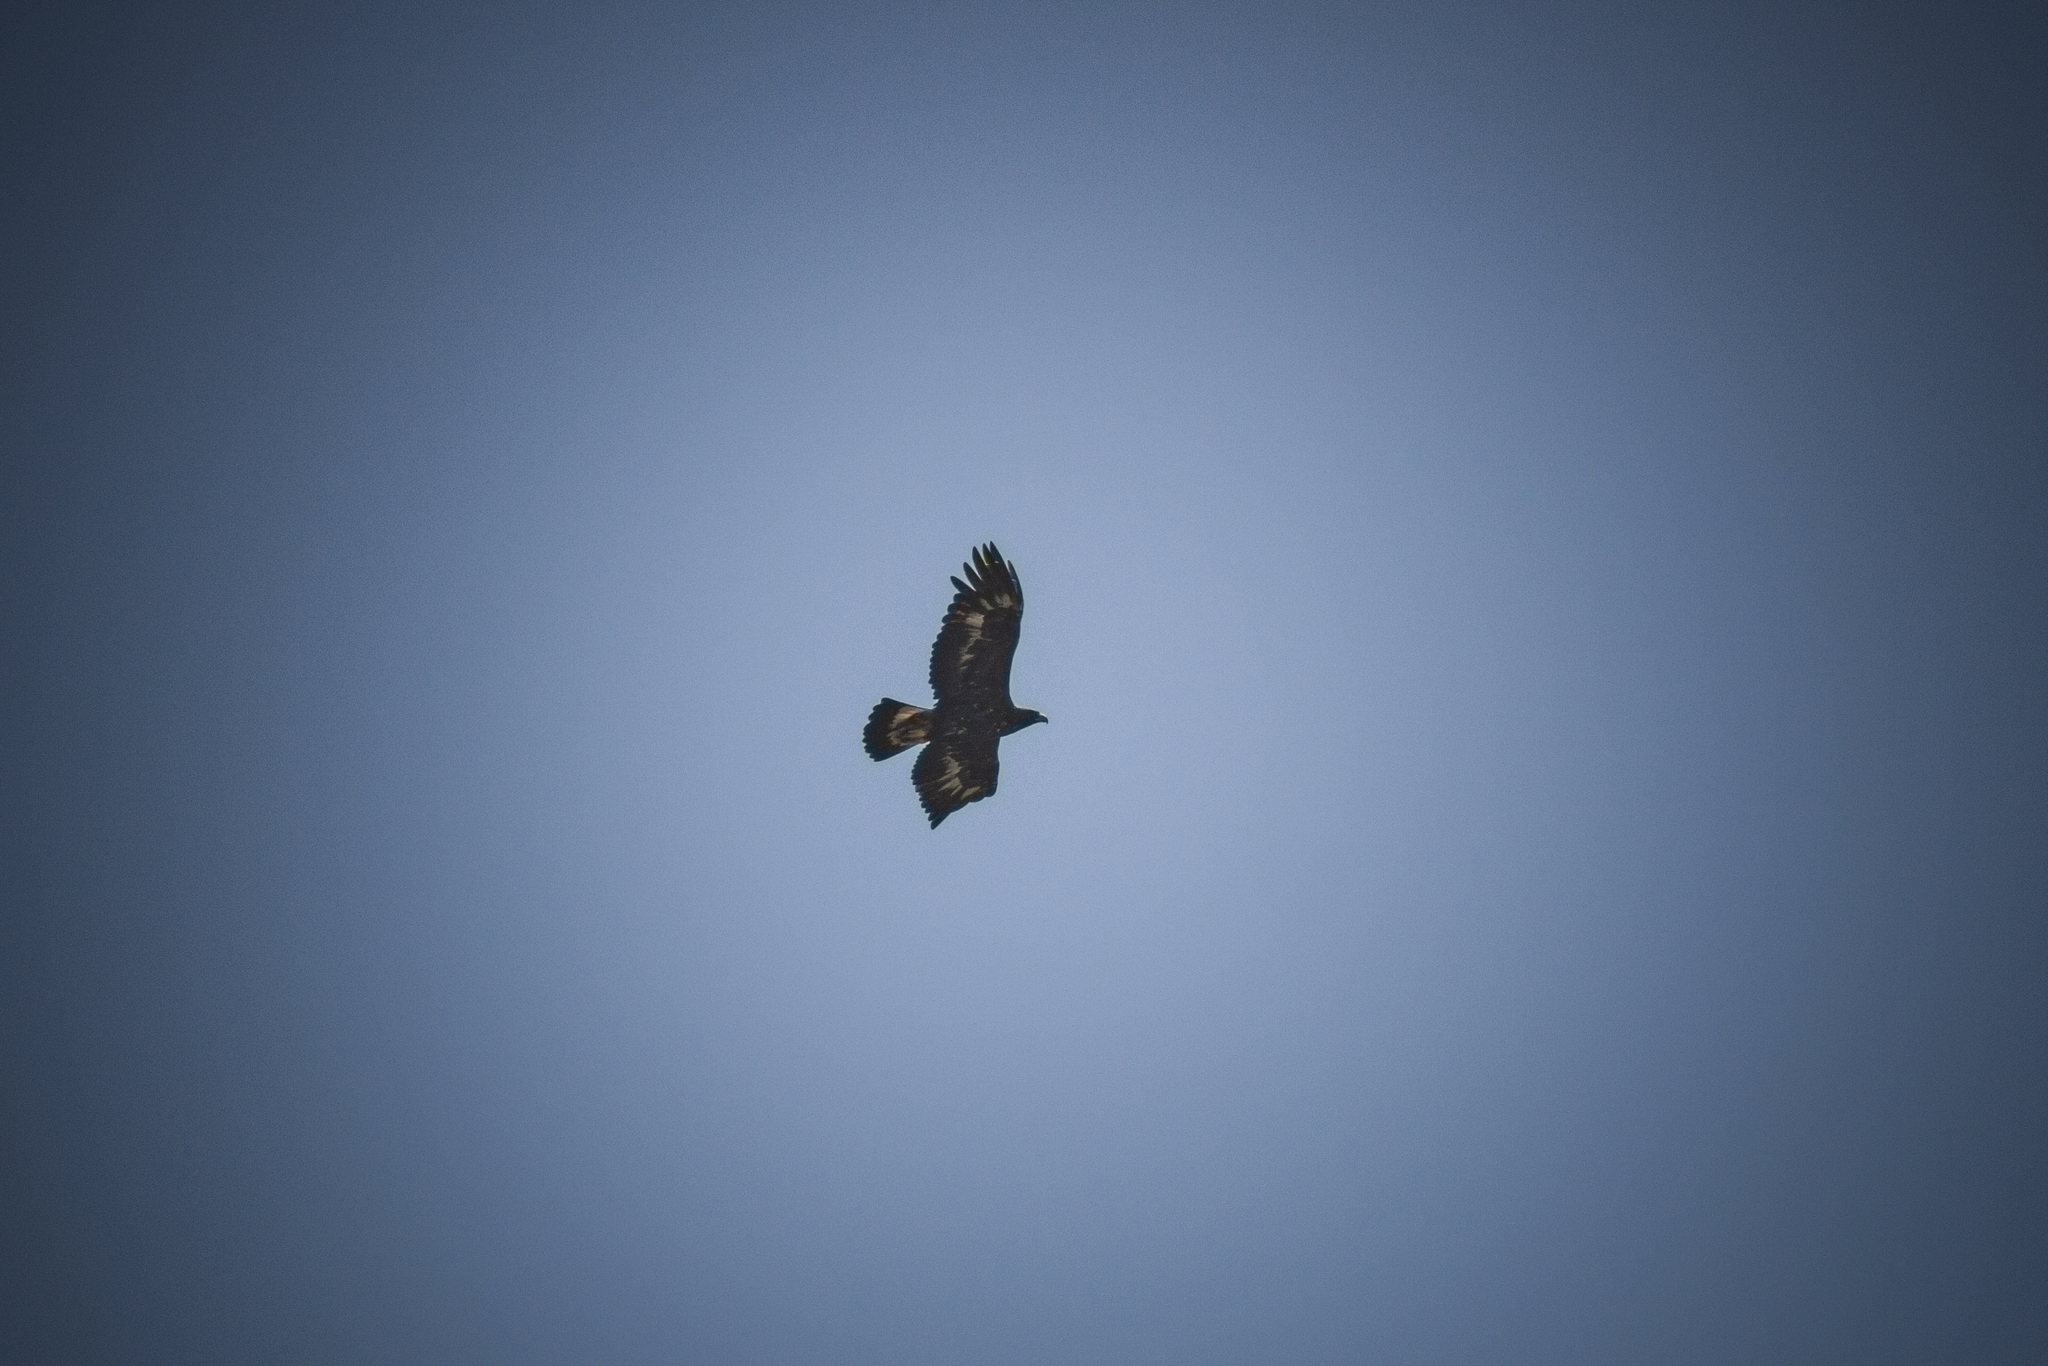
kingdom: Animalia
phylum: Chordata
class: Aves
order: Accipitriformes
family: Accipitridae
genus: Aquila
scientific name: Aquila chrysaetos
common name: Golden eagle
